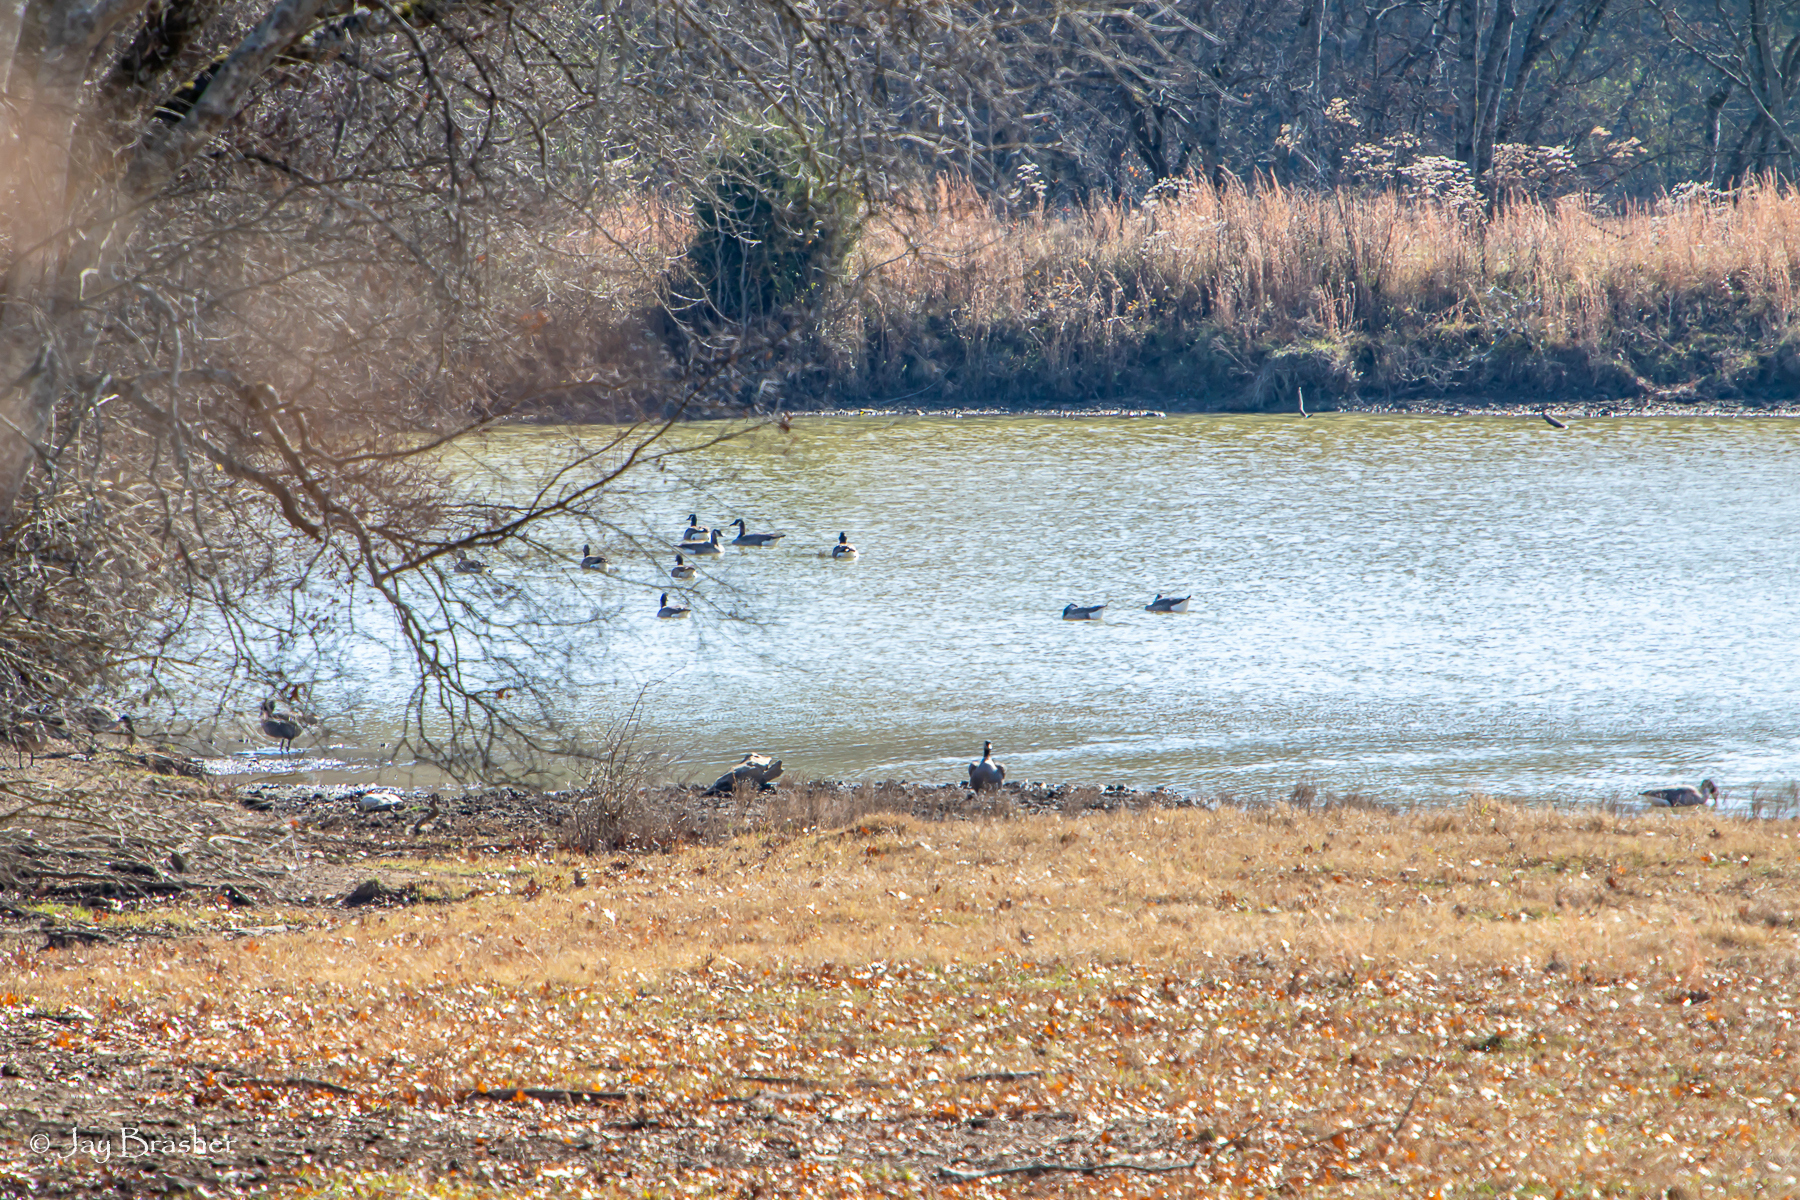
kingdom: Animalia
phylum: Chordata
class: Aves
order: Anseriformes
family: Anatidae
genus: Branta
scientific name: Branta canadensis
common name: Canada goose
